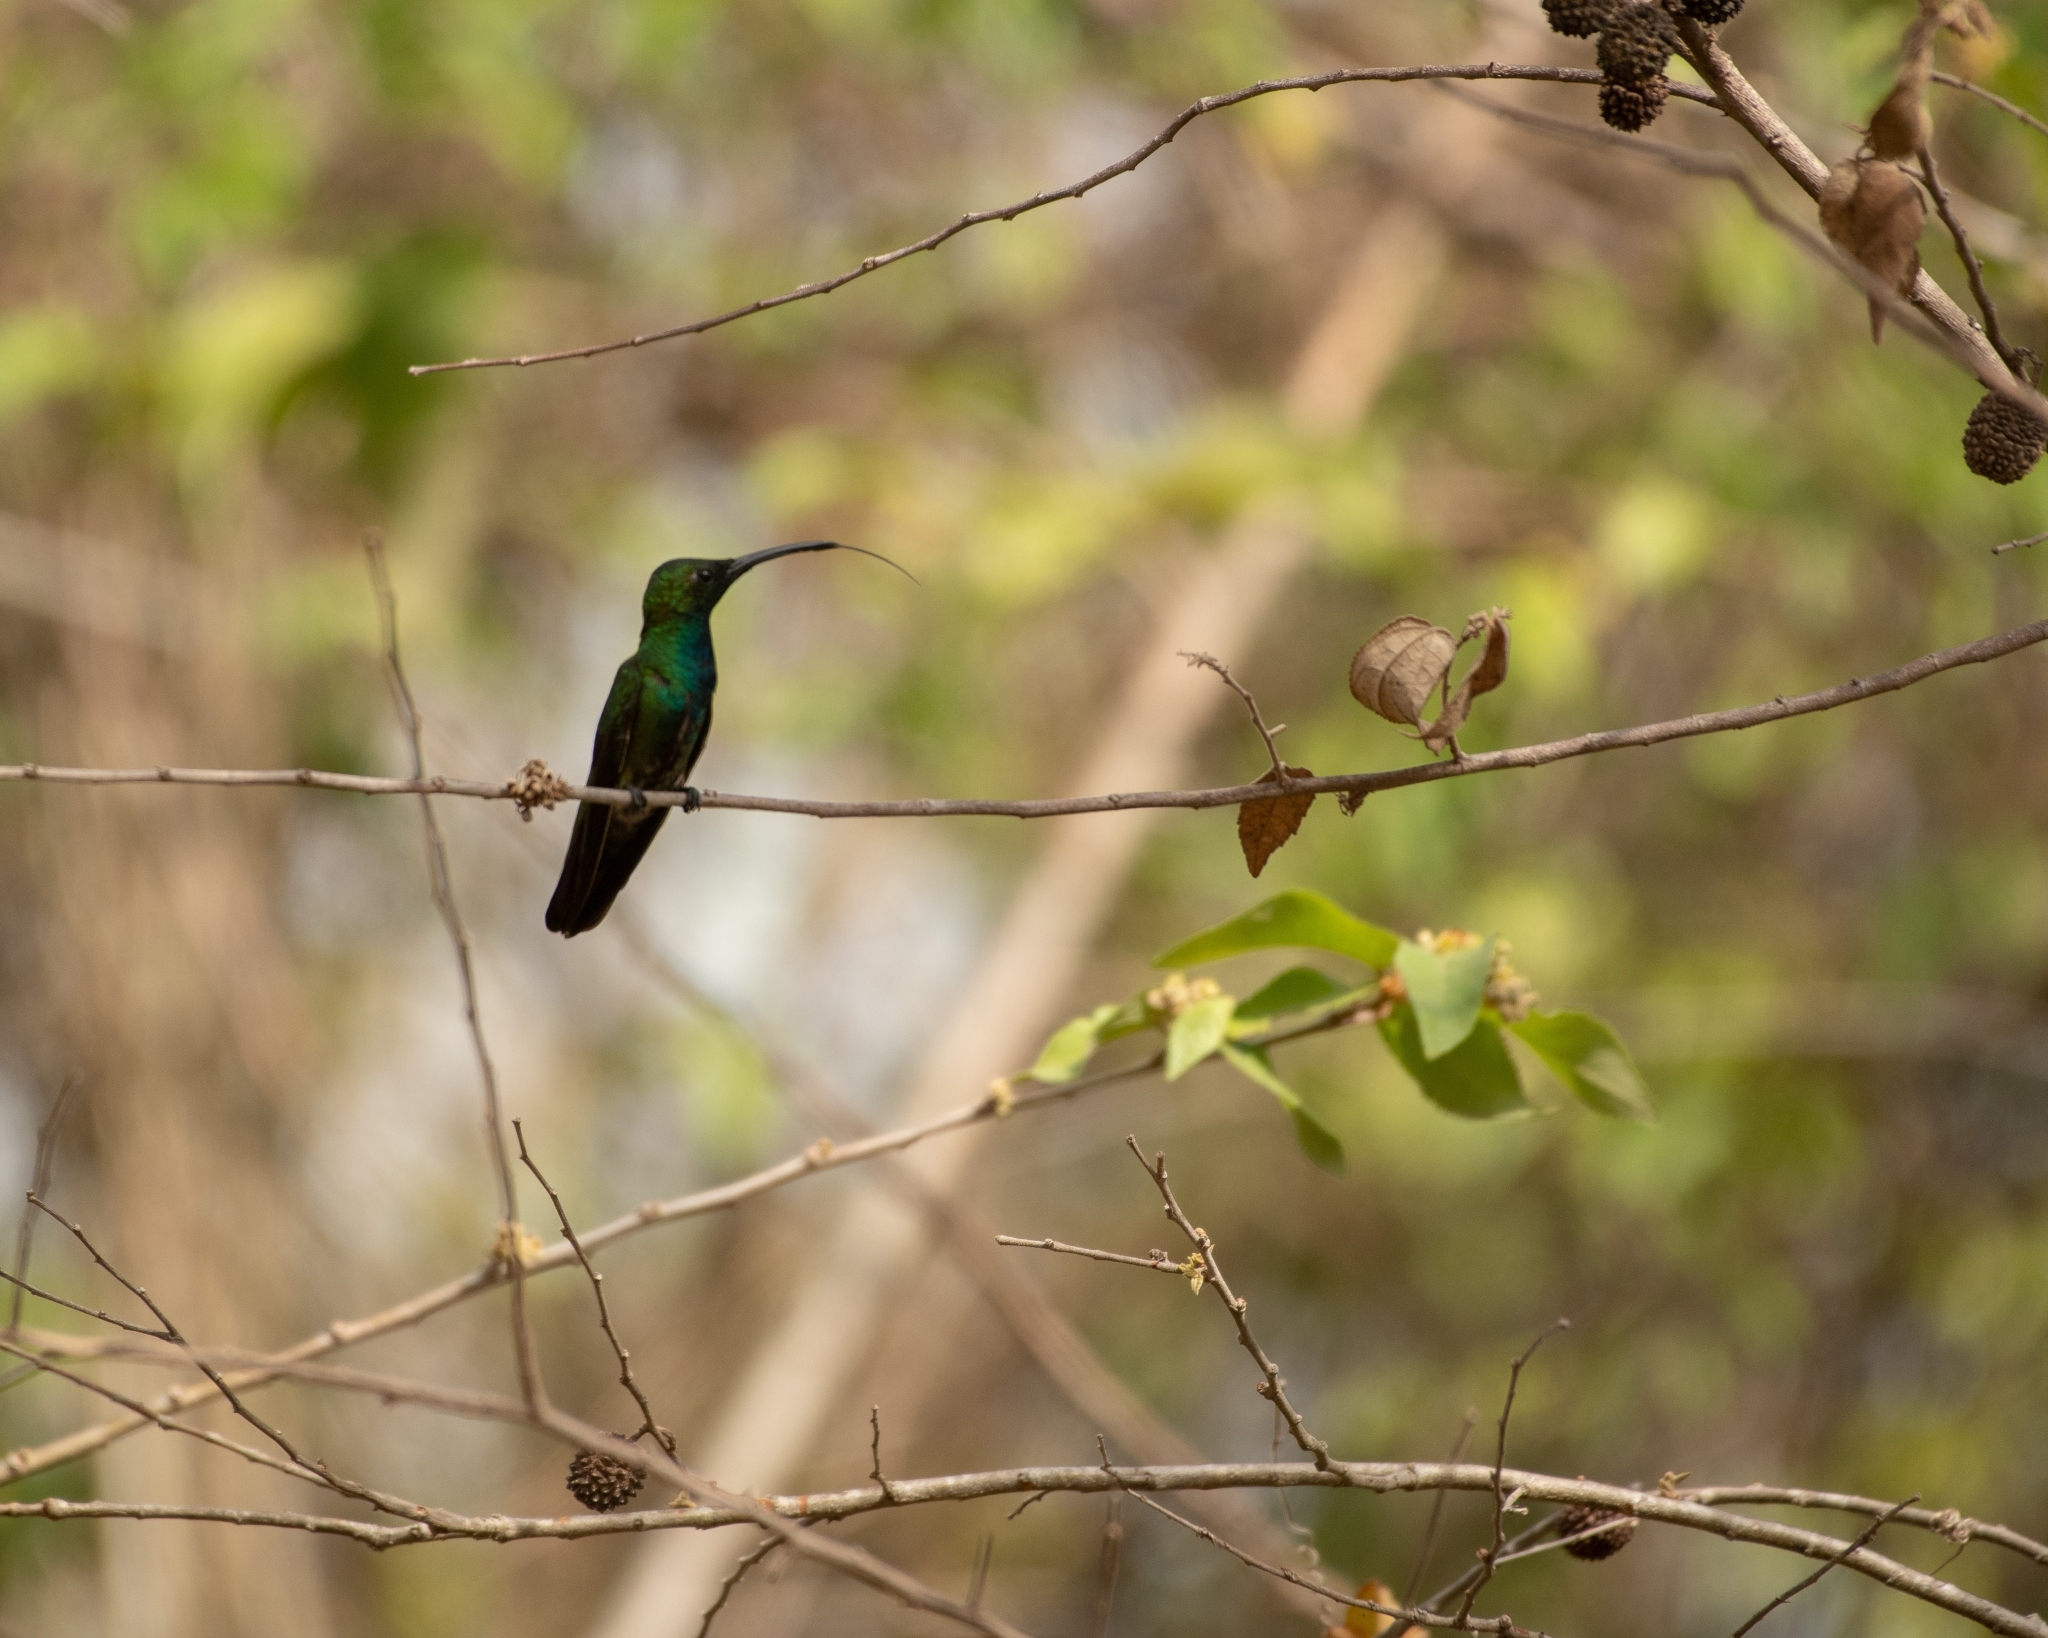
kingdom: Animalia
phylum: Chordata
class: Aves
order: Apodiformes
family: Trochilidae
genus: Anthracothorax
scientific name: Anthracothorax prevostii
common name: Green-breasted mango
